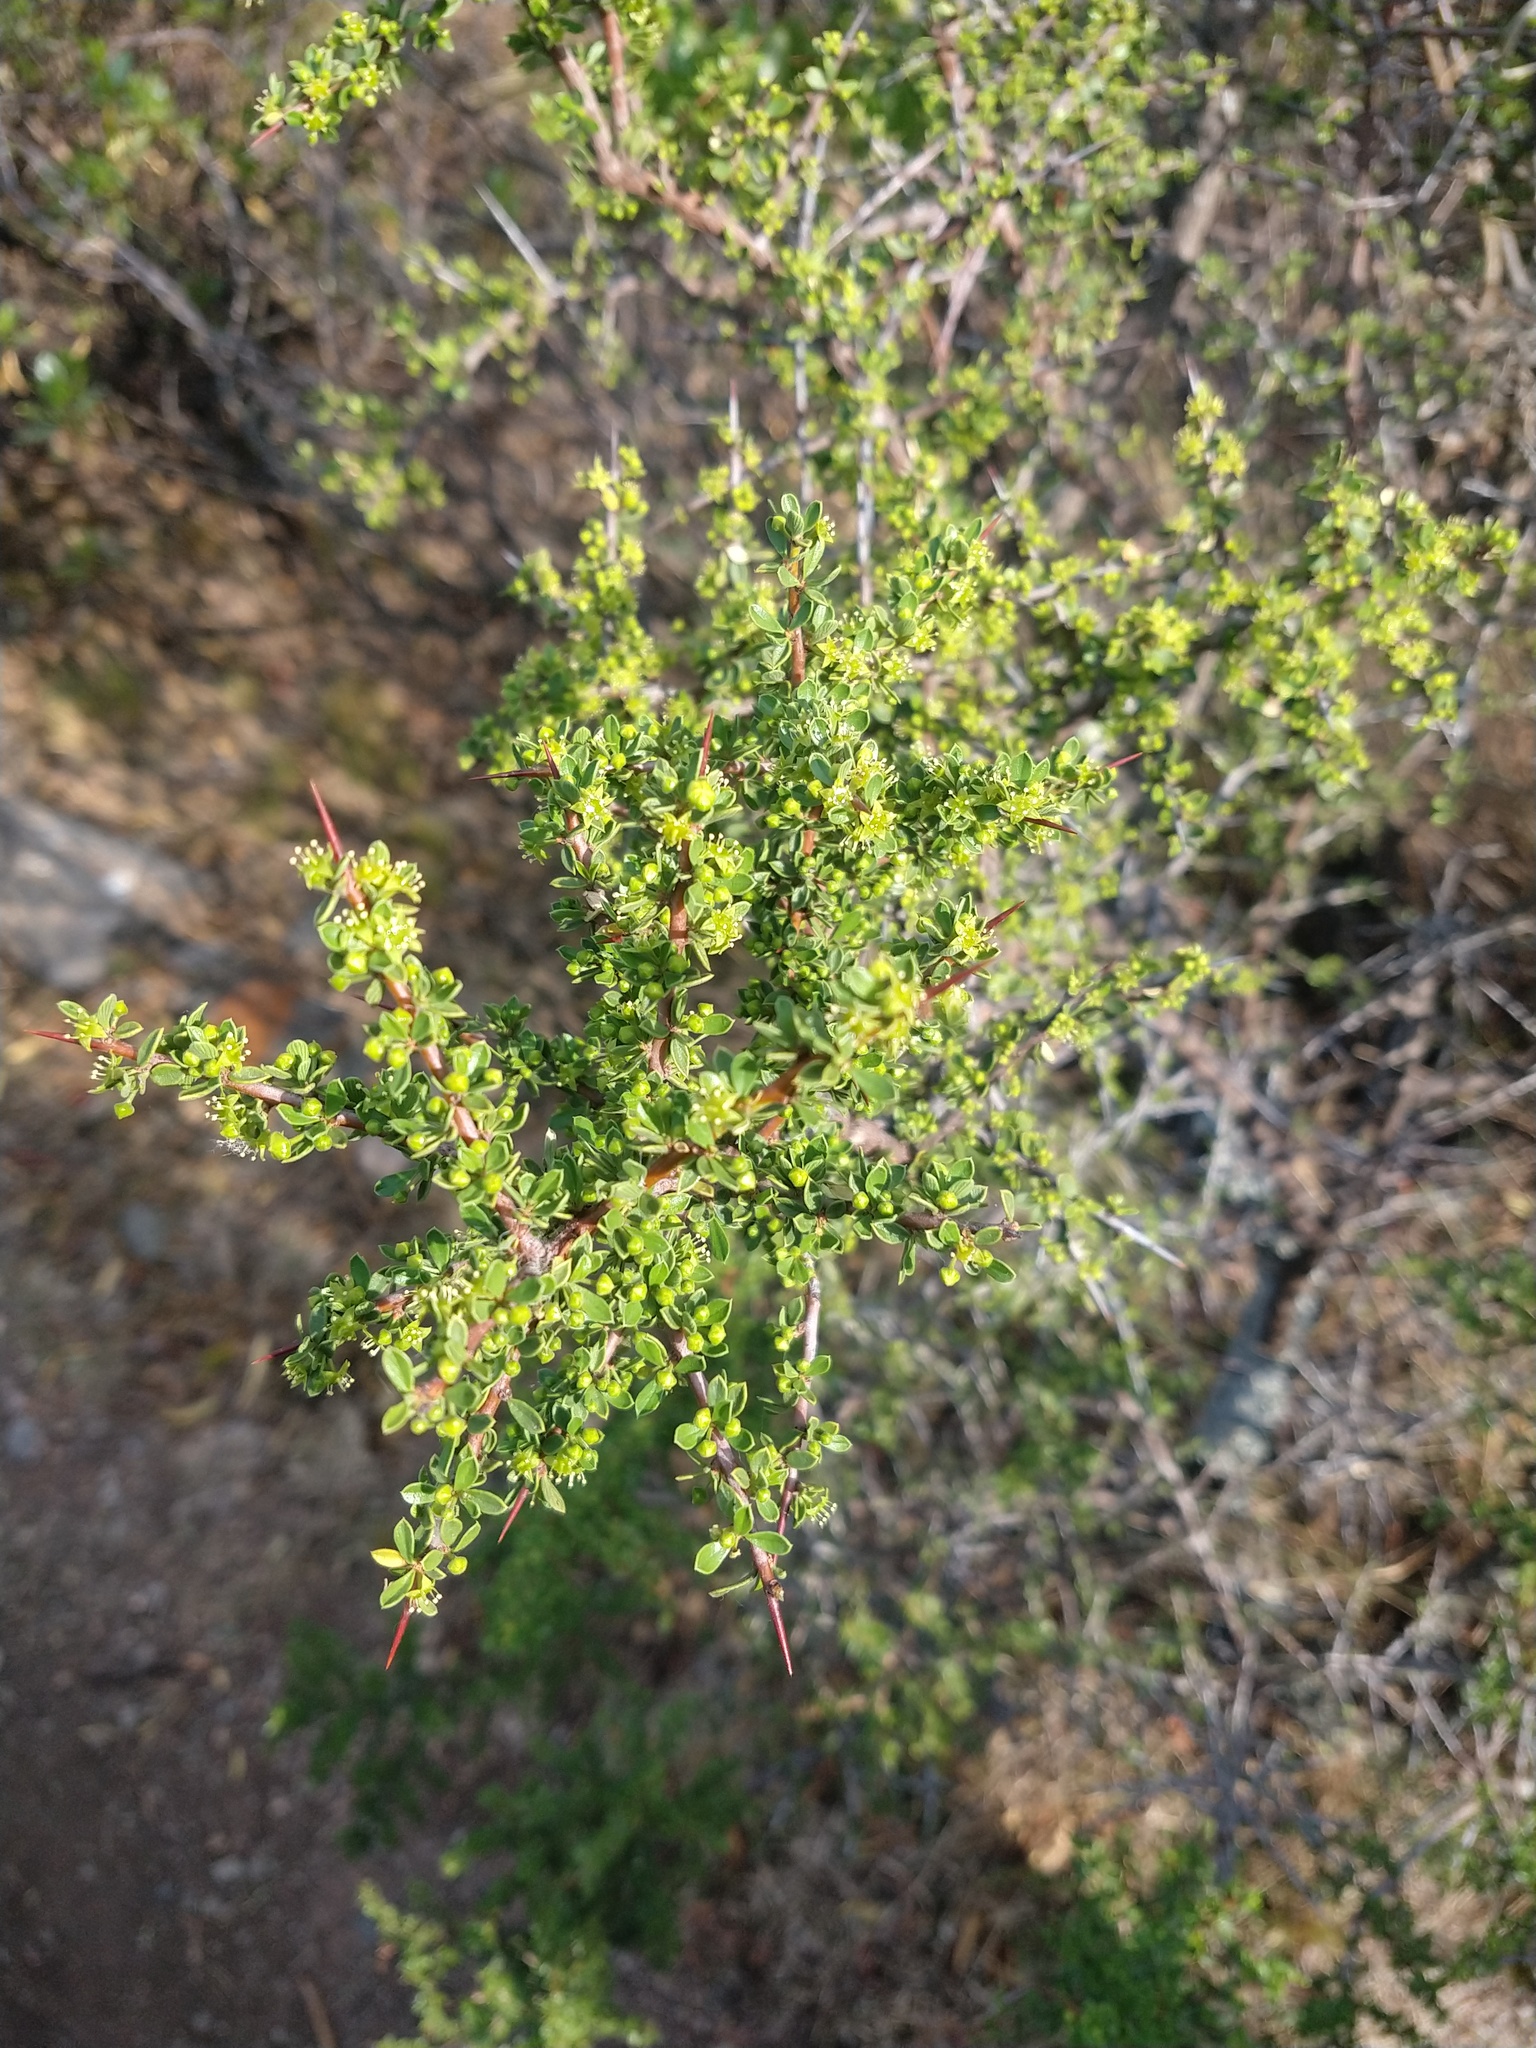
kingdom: Plantae
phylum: Tracheophyta
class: Magnoliopsida
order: Rosales
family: Rhamnaceae
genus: Condalia
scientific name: Condalia microphylla
